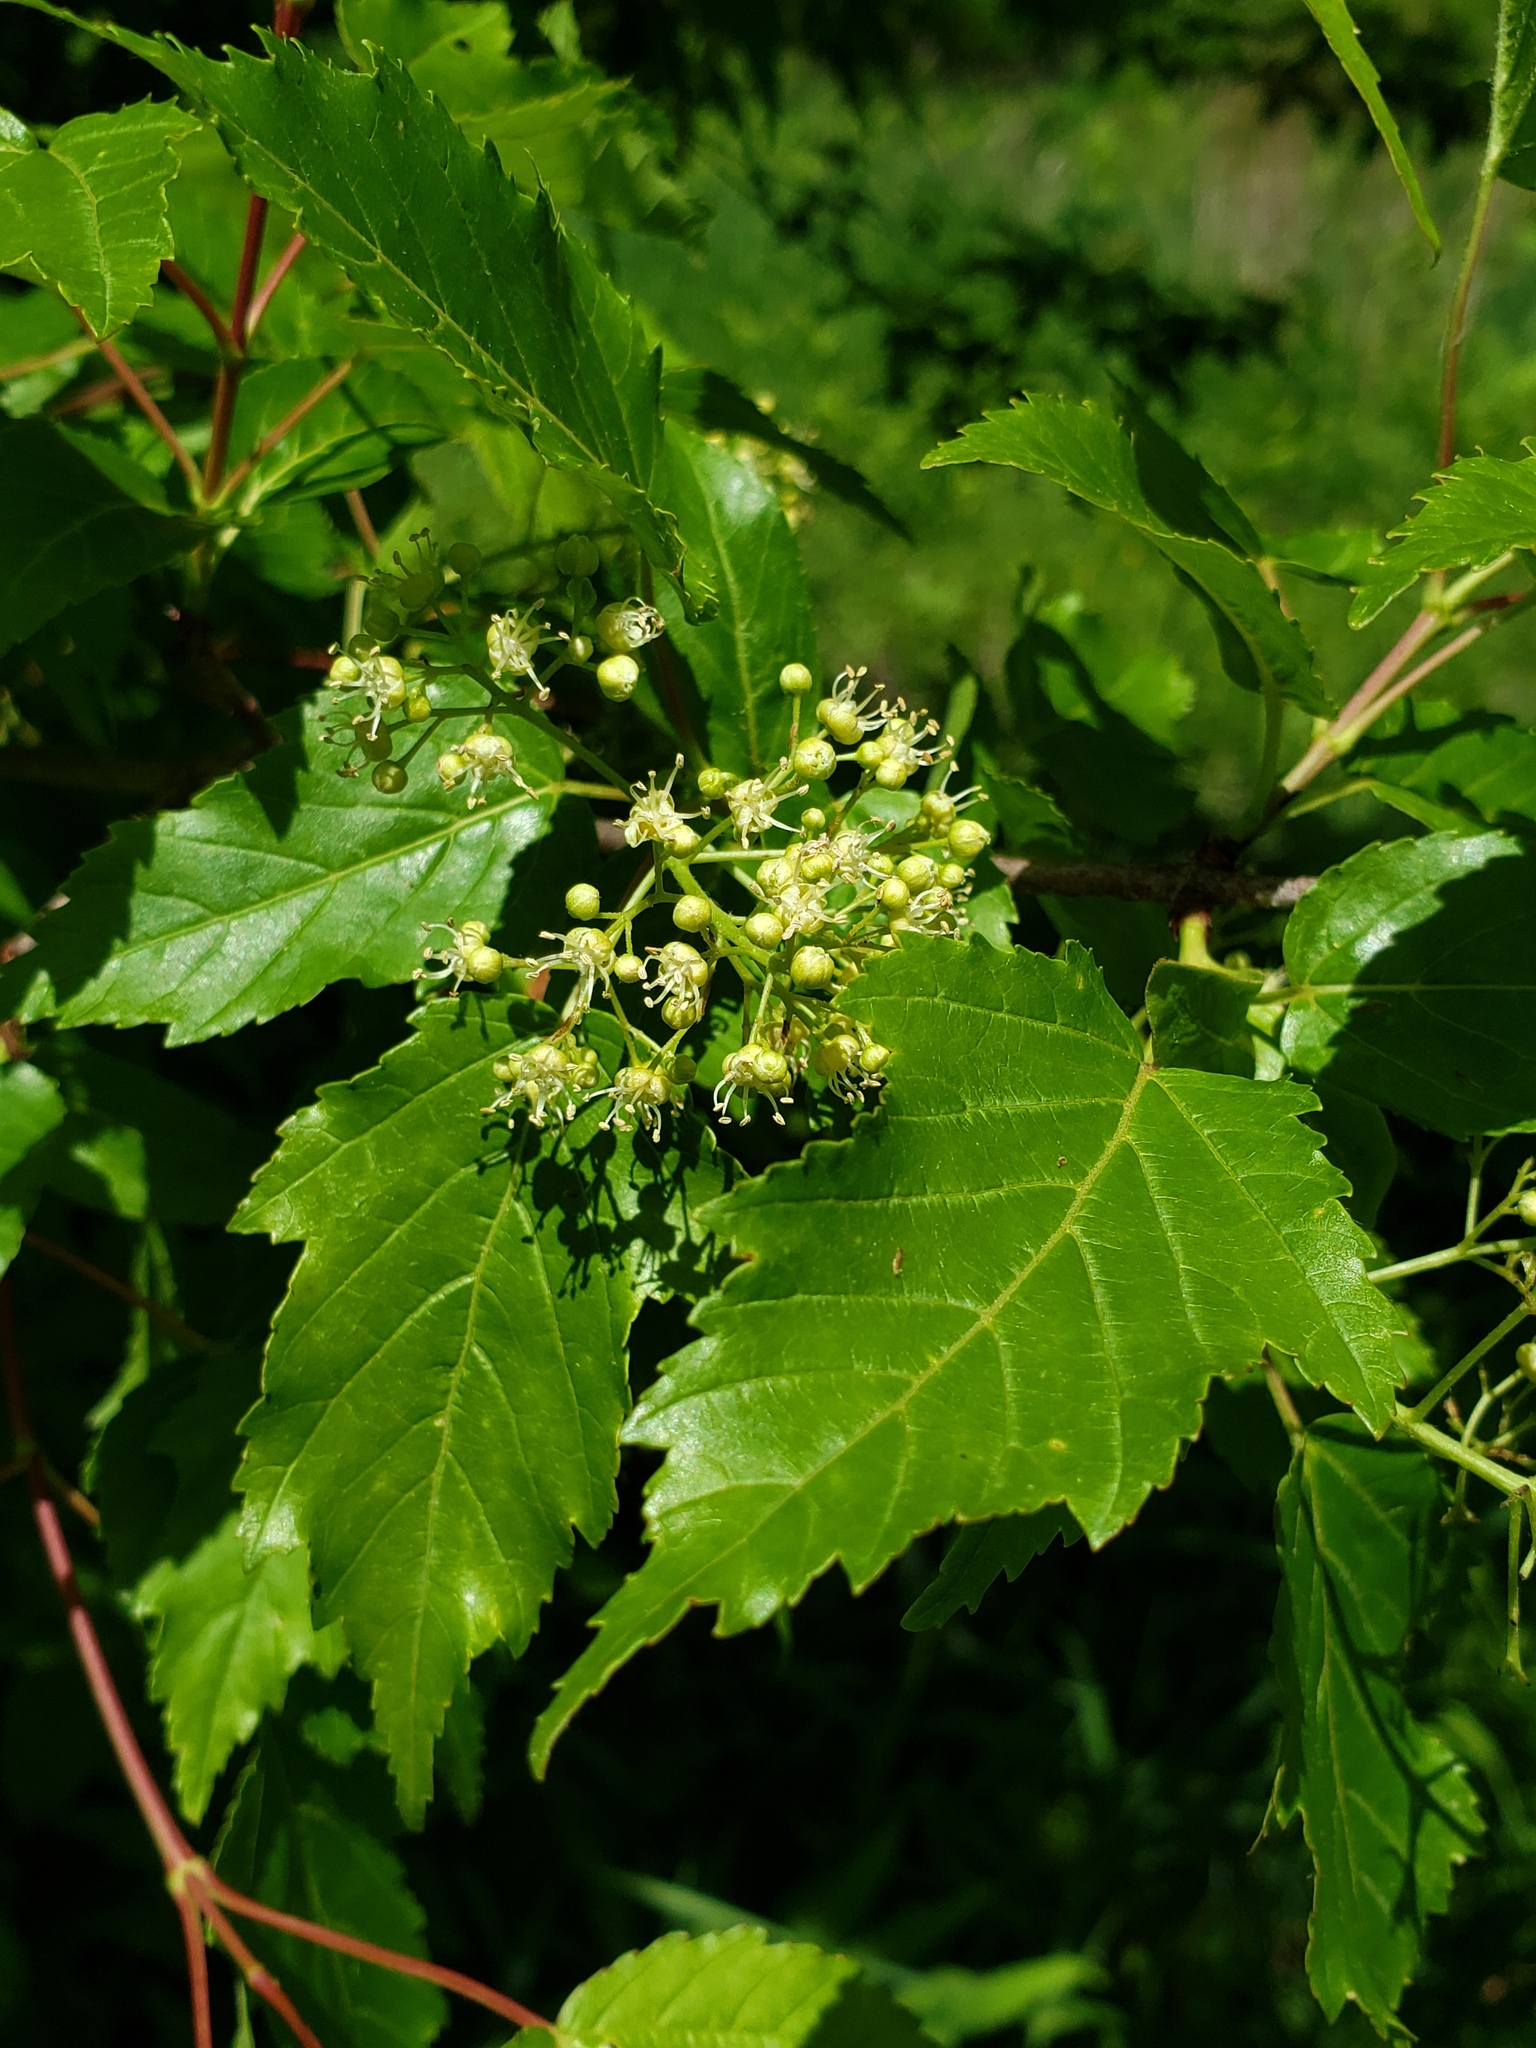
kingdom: Plantae
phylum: Tracheophyta
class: Magnoliopsida
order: Sapindales
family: Sapindaceae
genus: Acer
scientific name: Acer tataricum
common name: Tartar maple
